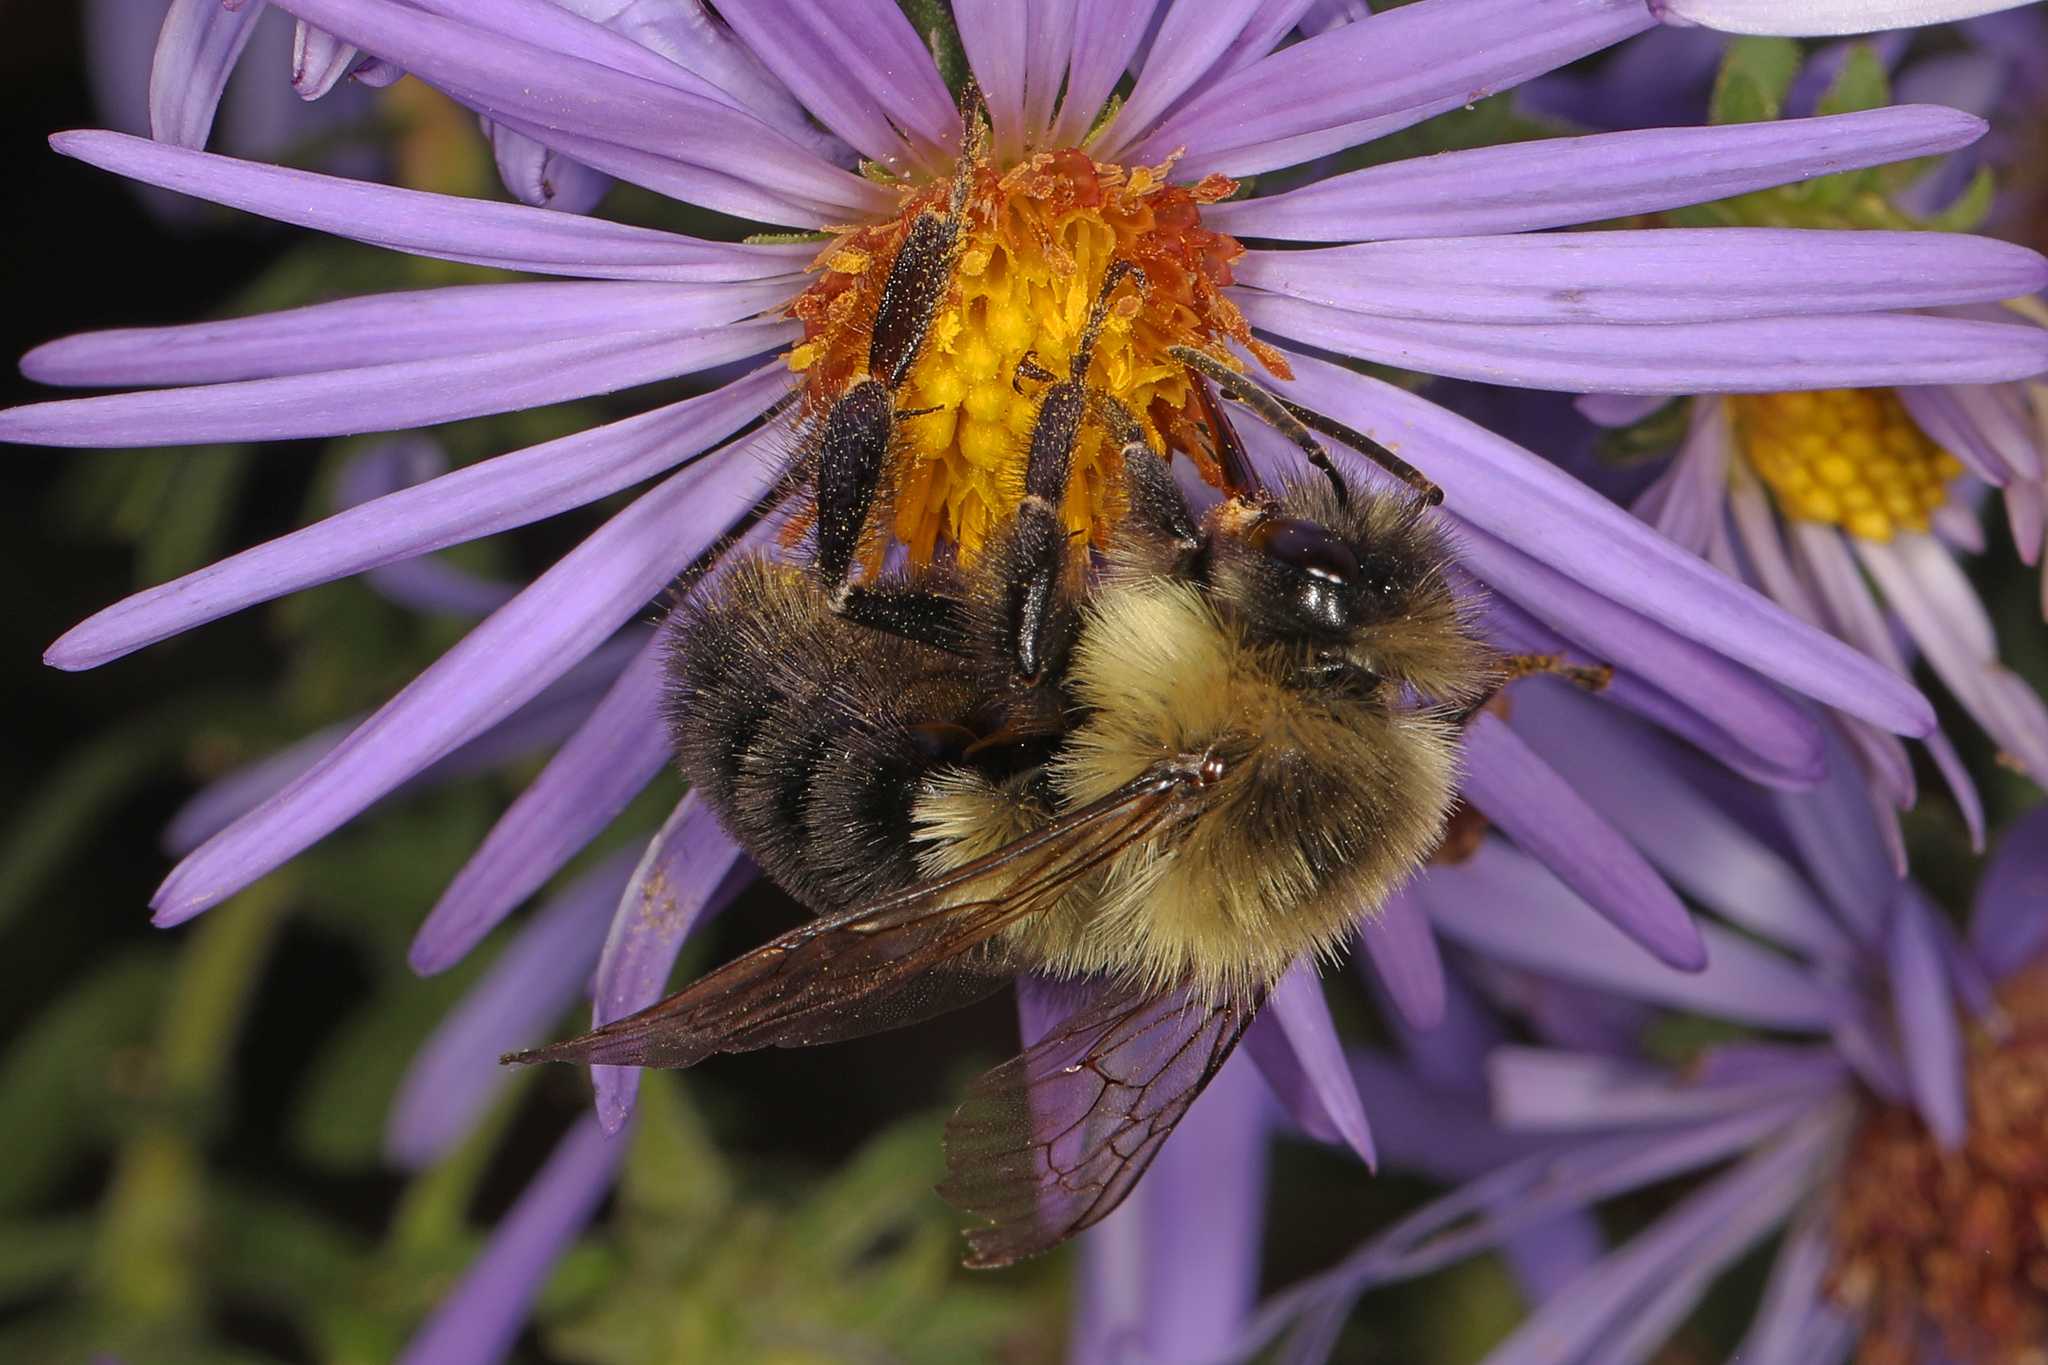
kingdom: Animalia
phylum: Arthropoda
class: Insecta
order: Hymenoptera
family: Apidae
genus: Bombus
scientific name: Bombus impatiens
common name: Common eastern bumble bee
